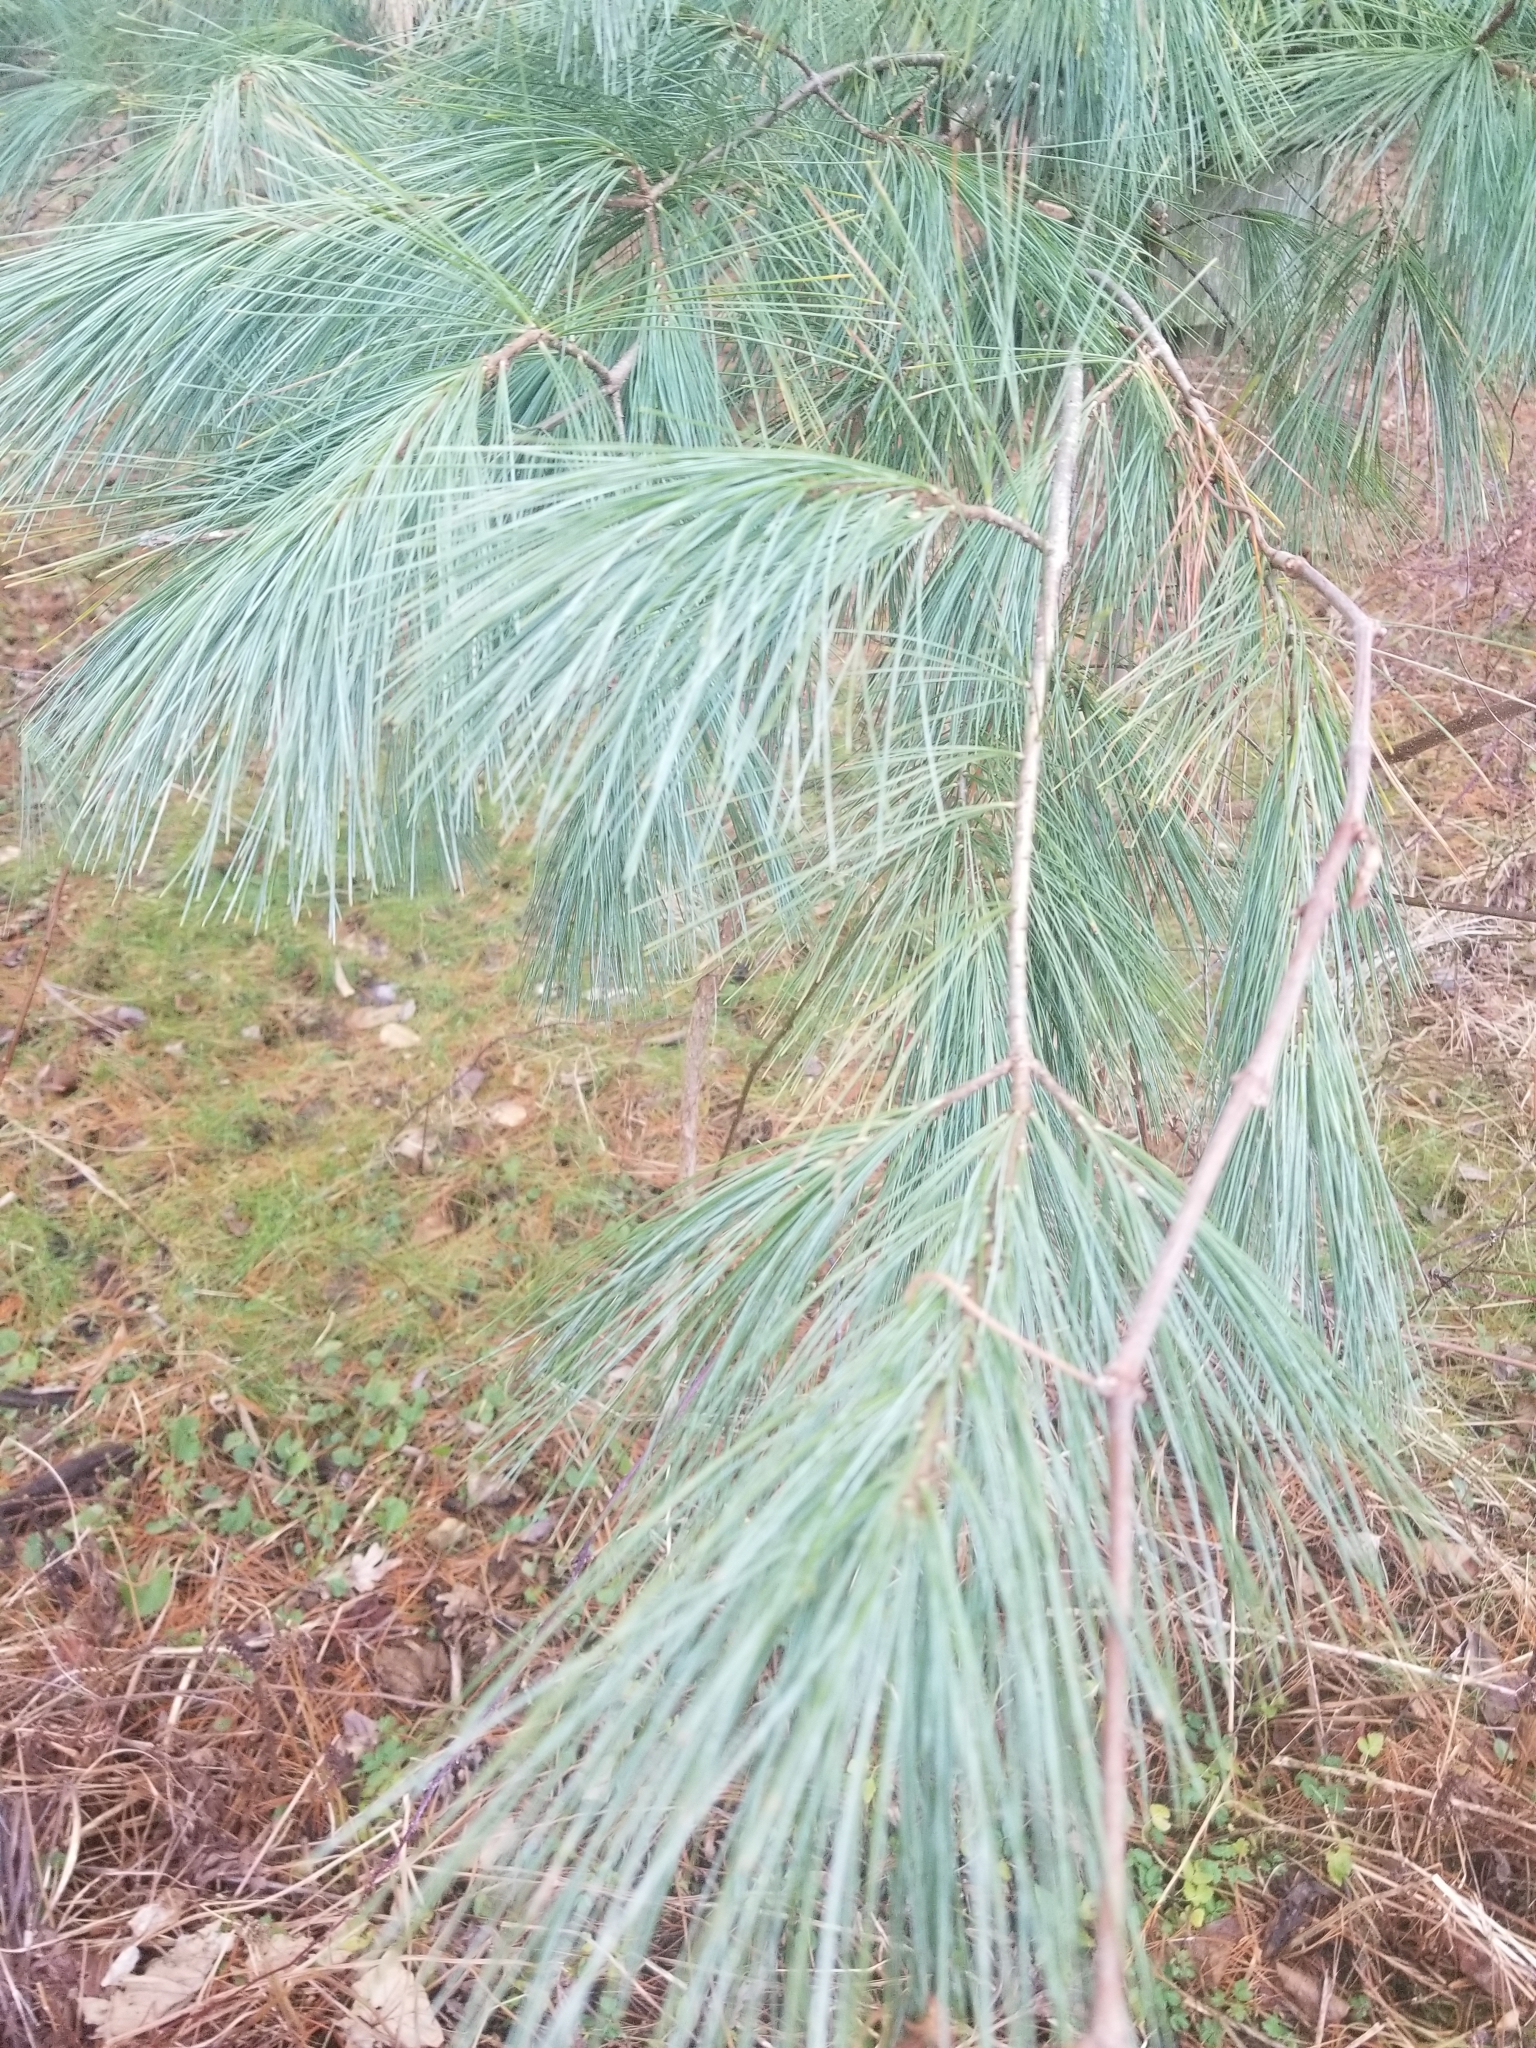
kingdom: Plantae
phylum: Tracheophyta
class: Pinopsida
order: Pinales
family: Pinaceae
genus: Pinus
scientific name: Pinus strobus
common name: Weymouth pine
